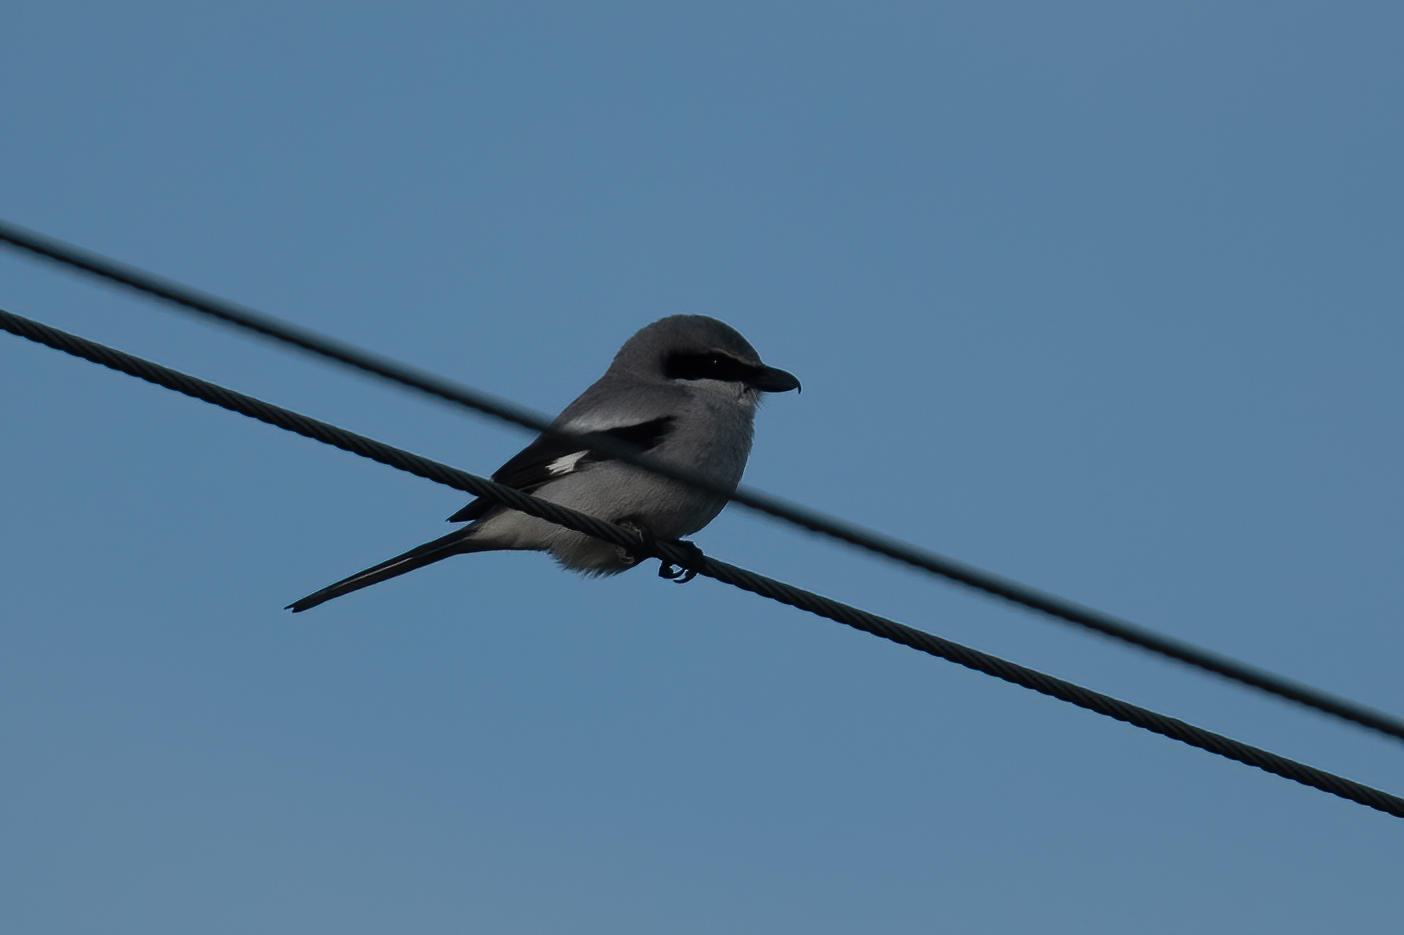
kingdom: Animalia
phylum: Chordata
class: Aves
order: Passeriformes
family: Laniidae
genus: Lanius
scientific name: Lanius ludovicianus
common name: Loggerhead shrike
